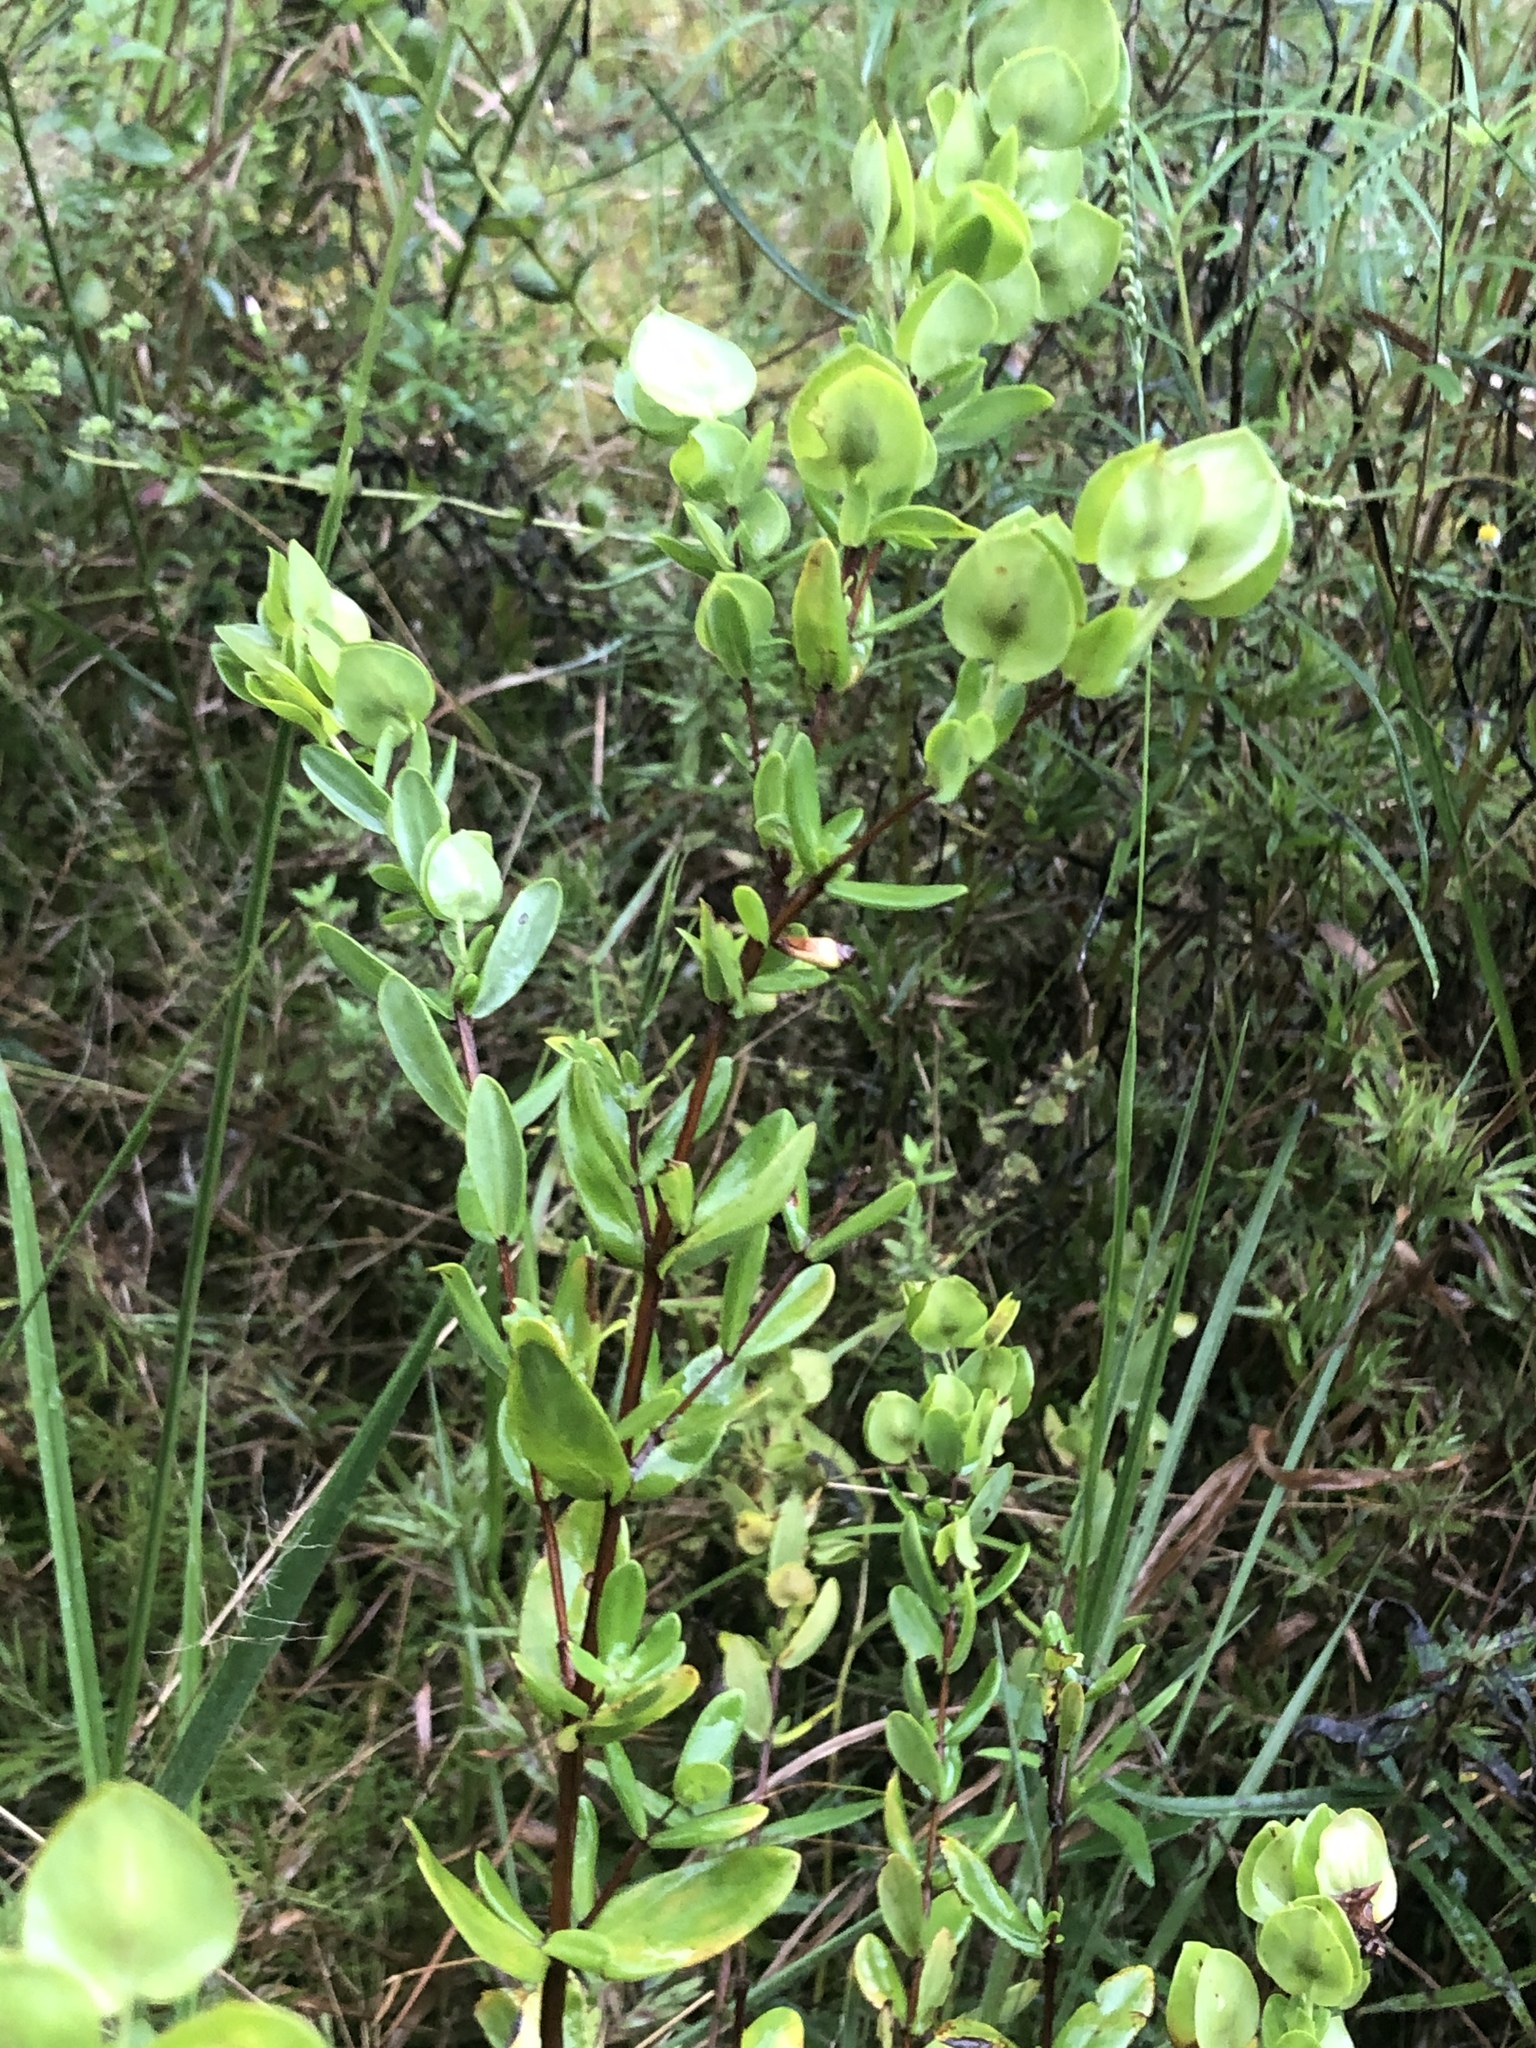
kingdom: Plantae
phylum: Tracheophyta
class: Magnoliopsida
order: Malpighiales
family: Hypericaceae
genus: Hypericum
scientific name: Hypericum crux-andreae
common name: St.-peter's-wort
